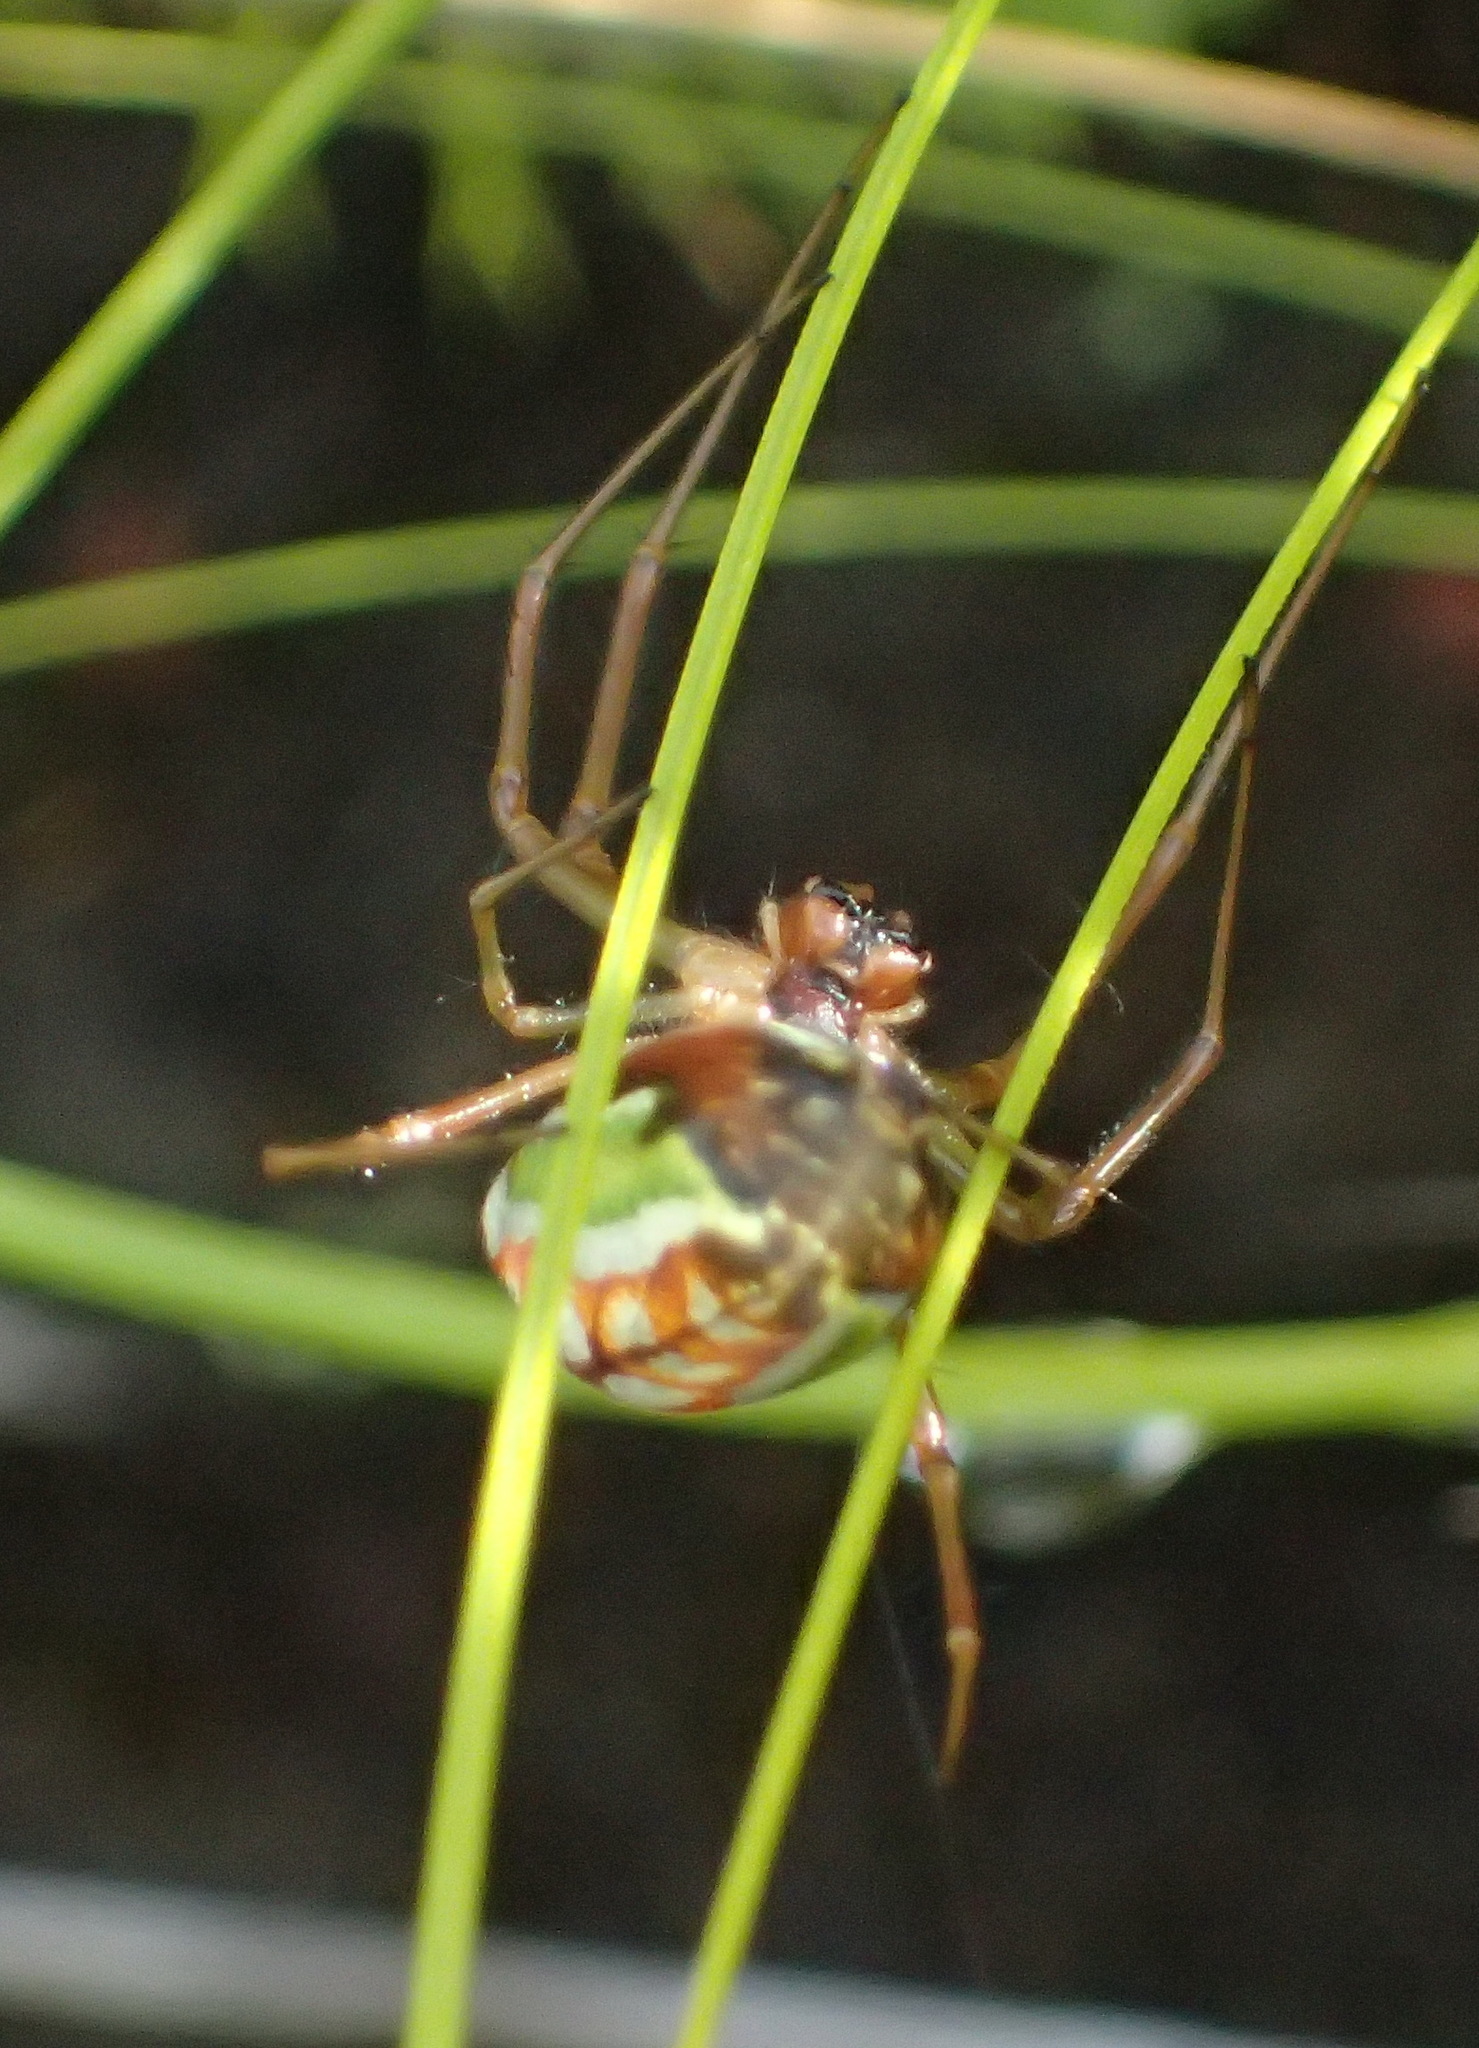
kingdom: Animalia
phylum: Arthropoda
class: Arachnida
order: Araneae
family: Tetragnathidae
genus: Leucauge
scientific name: Leucauge festiva
